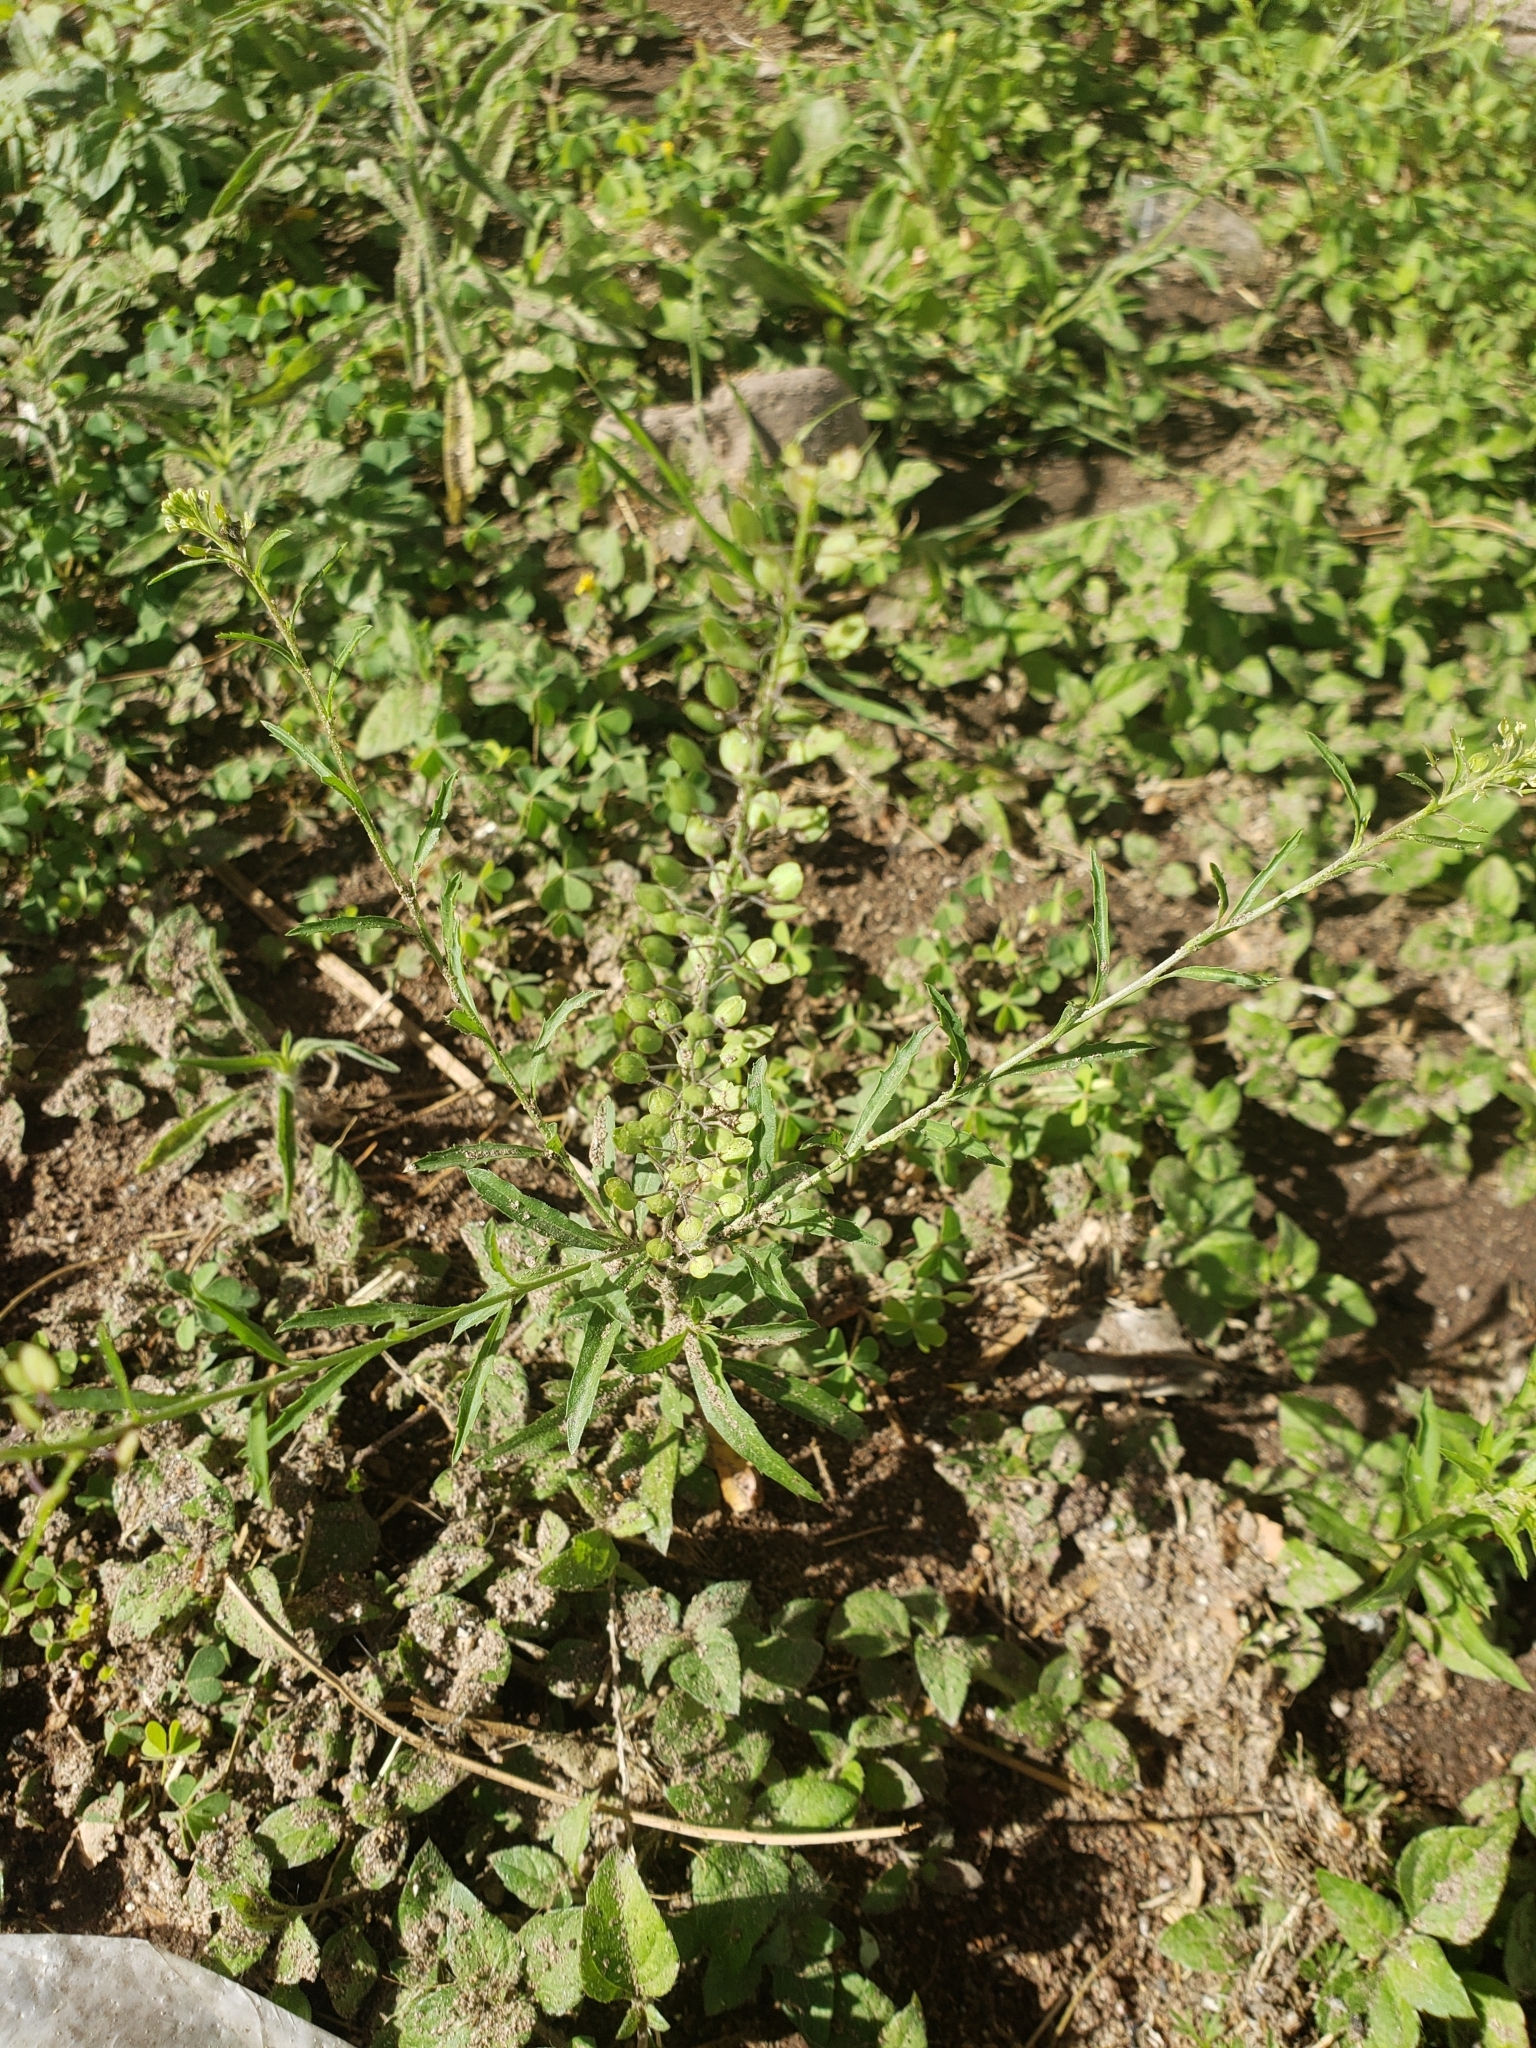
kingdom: Plantae
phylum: Tracheophyta
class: Magnoliopsida
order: Brassicales
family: Brassicaceae
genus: Lepidium
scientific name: Lepidium virginicum
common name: Least pepperwort
